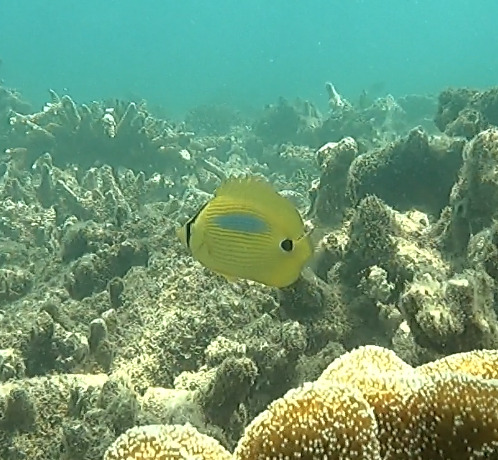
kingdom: Animalia
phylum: Chordata
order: Perciformes
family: Chaetodontidae
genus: Chaetodon
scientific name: Chaetodon plebeius
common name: Bluespot butterflyfish
